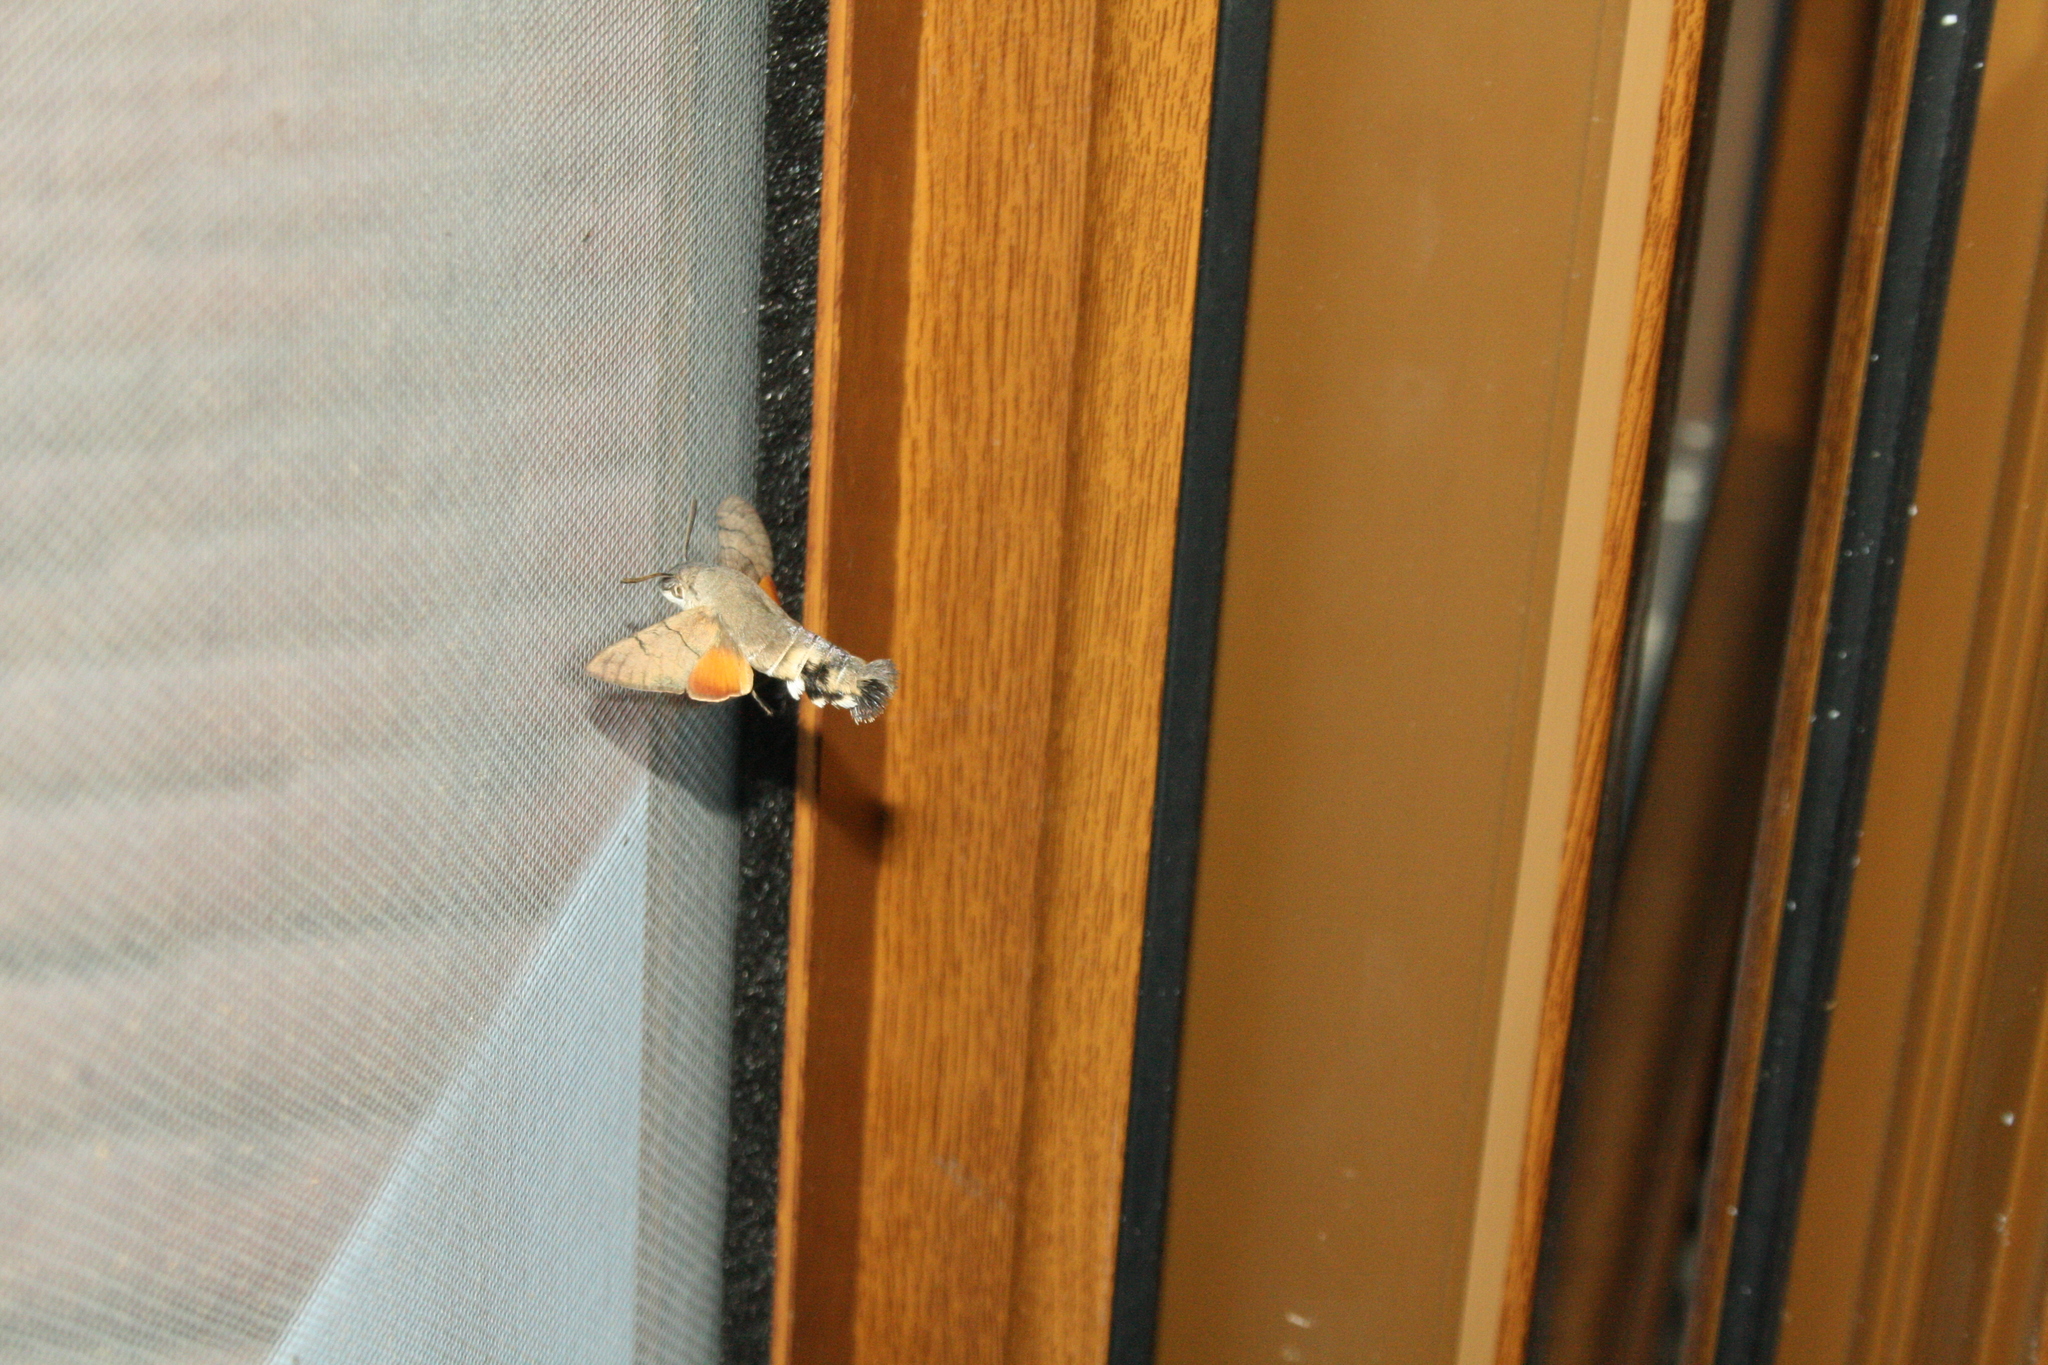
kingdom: Animalia
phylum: Arthropoda
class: Insecta
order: Lepidoptera
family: Sphingidae
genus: Macroglossum
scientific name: Macroglossum stellatarum
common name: Humming-bird hawk-moth
